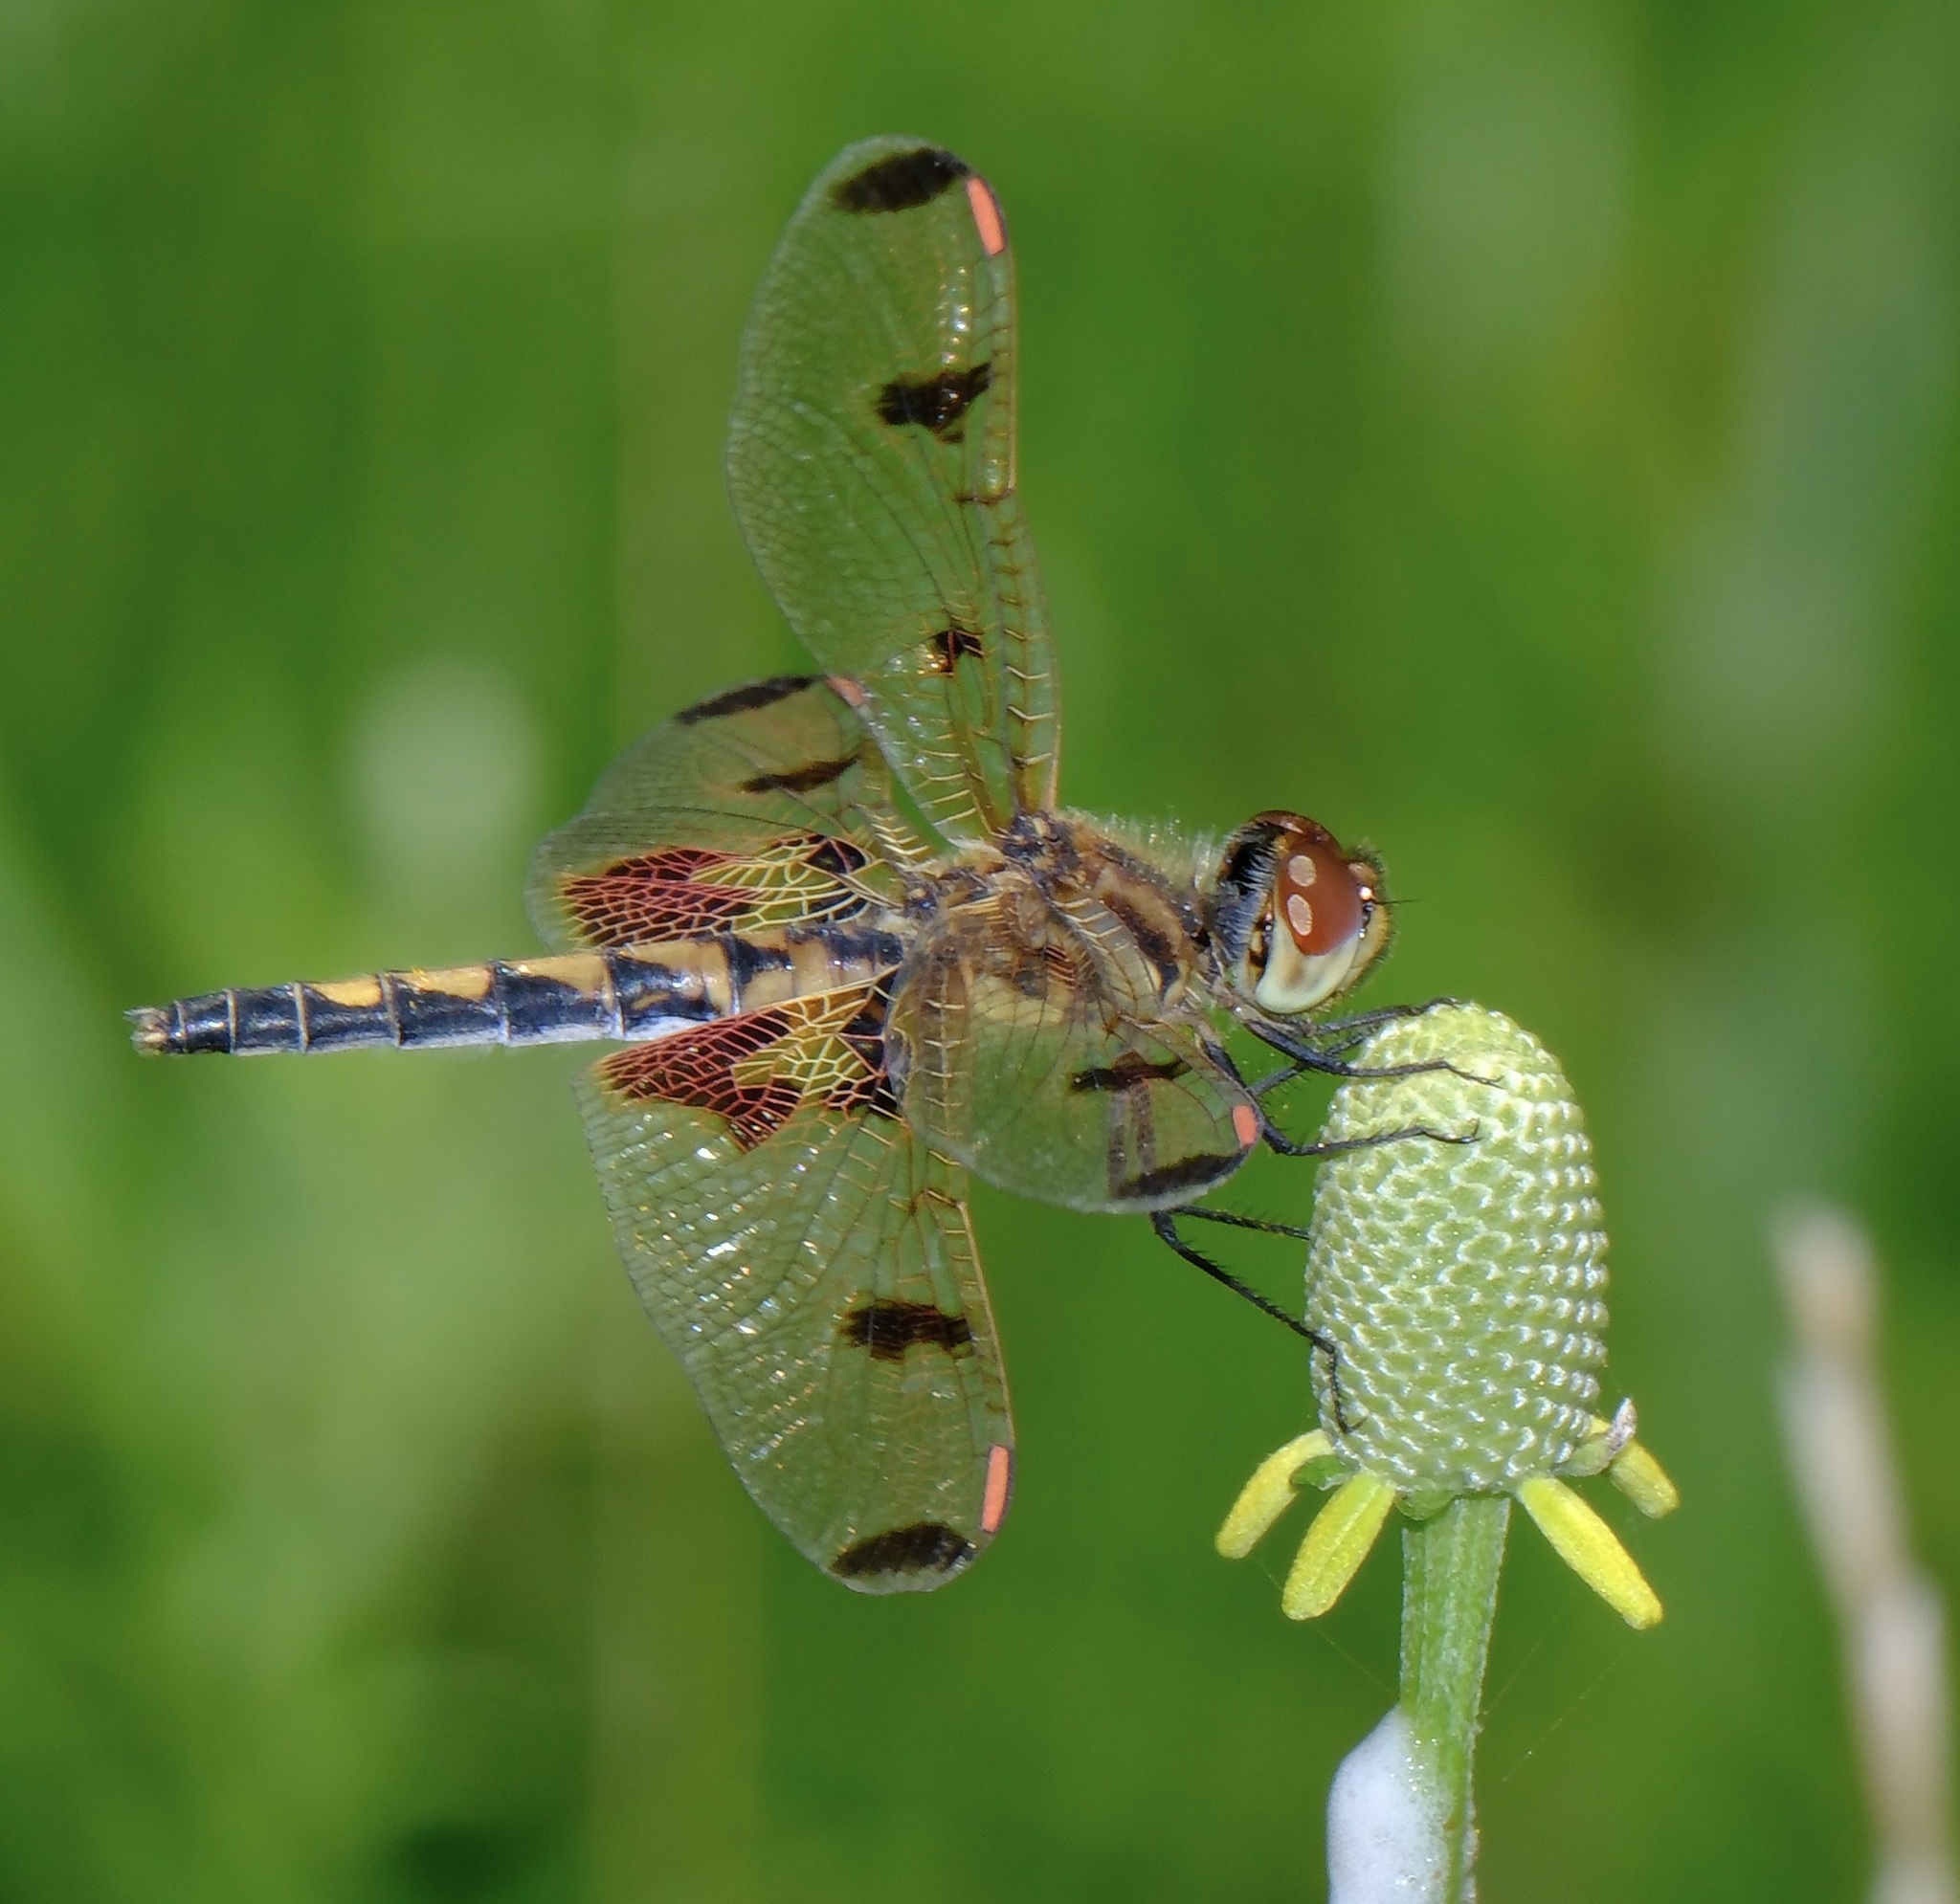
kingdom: Animalia
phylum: Arthropoda
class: Insecta
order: Odonata
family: Libellulidae
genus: Celithemis
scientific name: Celithemis elisa
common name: Calico pennant
